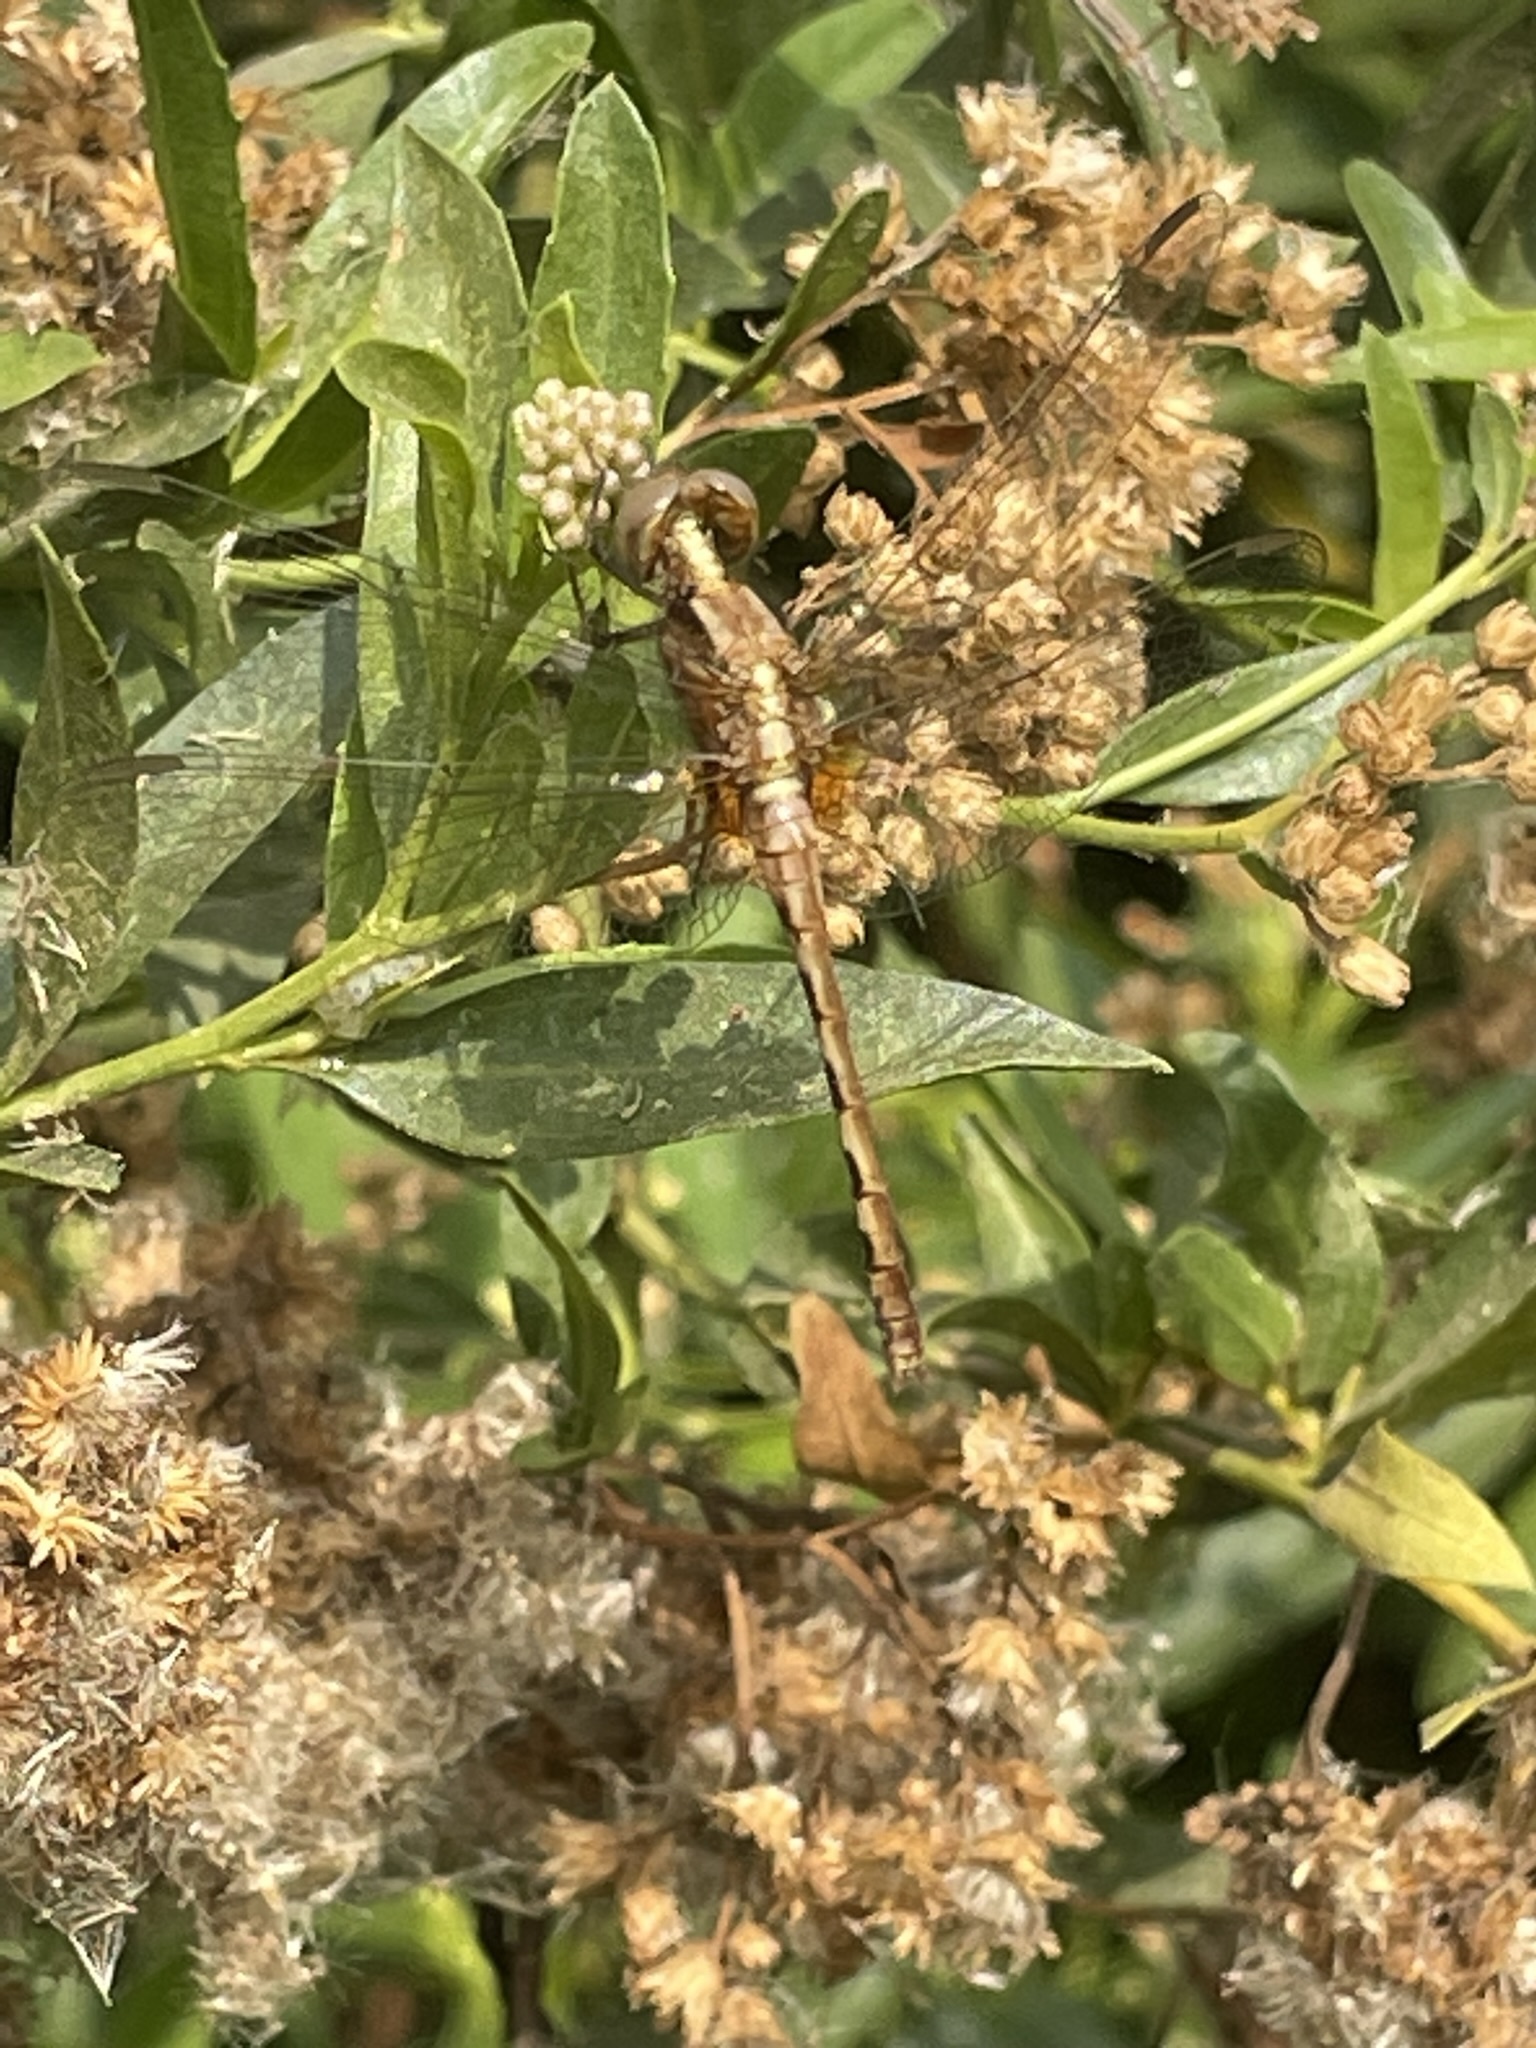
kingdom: Animalia
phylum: Arthropoda
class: Insecta
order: Odonata
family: Libellulidae
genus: Erythrodiplax
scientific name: Erythrodiplax cleopatra
